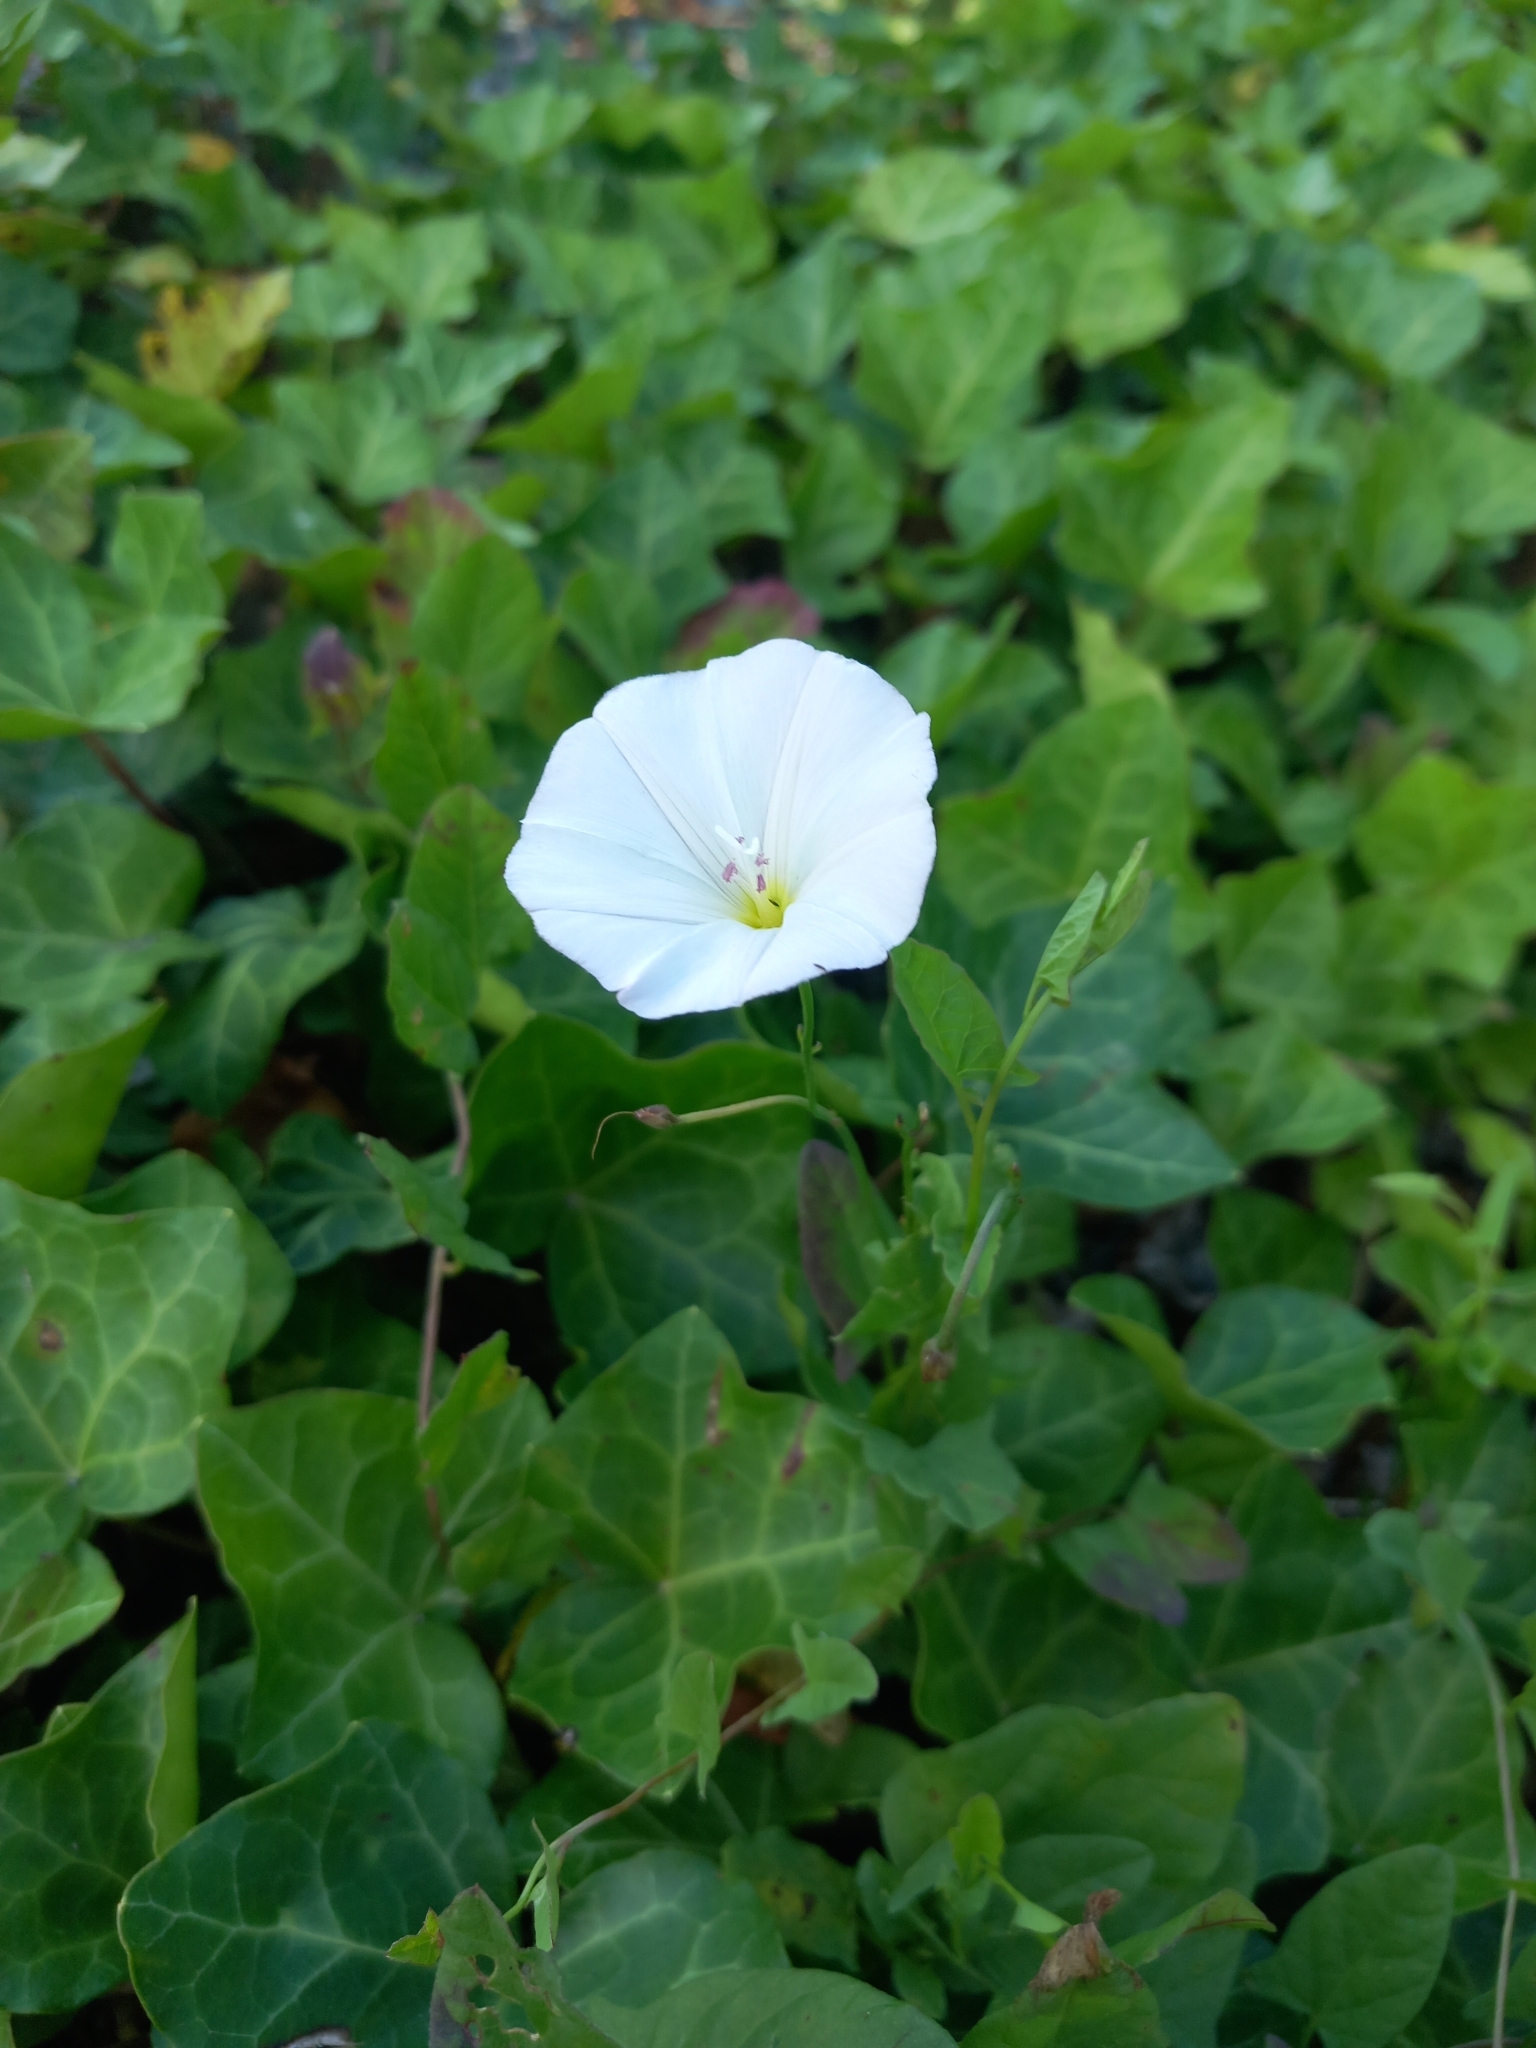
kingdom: Plantae
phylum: Tracheophyta
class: Magnoliopsida
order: Solanales
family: Convolvulaceae
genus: Convolvulus
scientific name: Convolvulus arvensis
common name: Field bindweed
